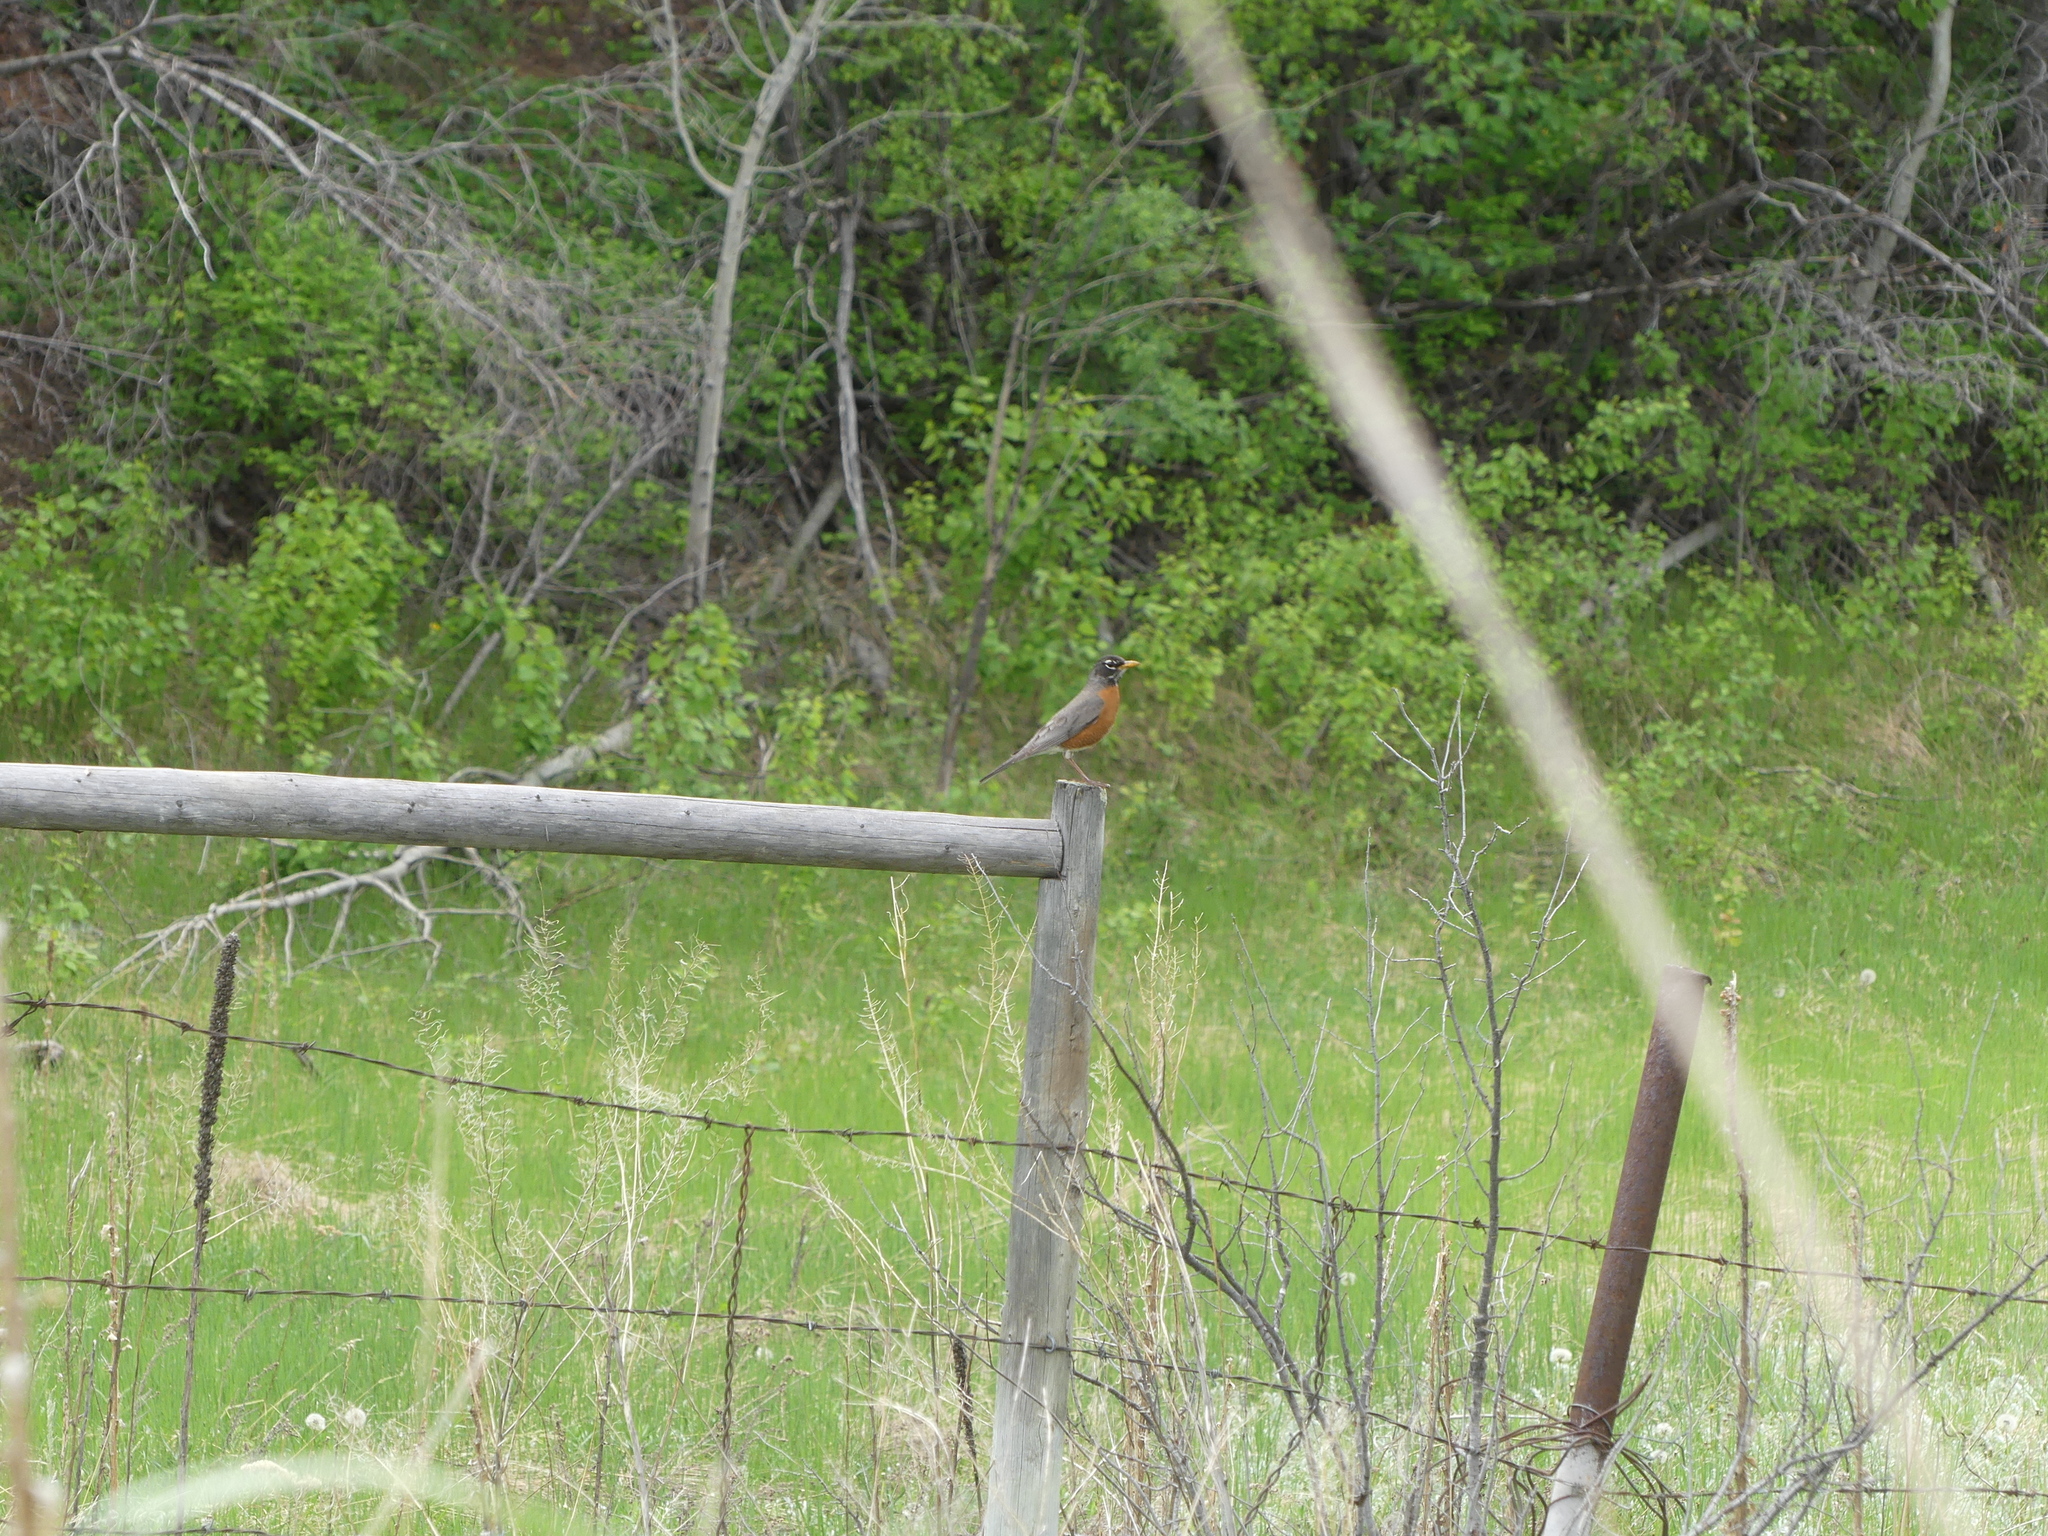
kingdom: Animalia
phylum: Chordata
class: Aves
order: Passeriformes
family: Turdidae
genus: Turdus
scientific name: Turdus migratorius
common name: American robin
